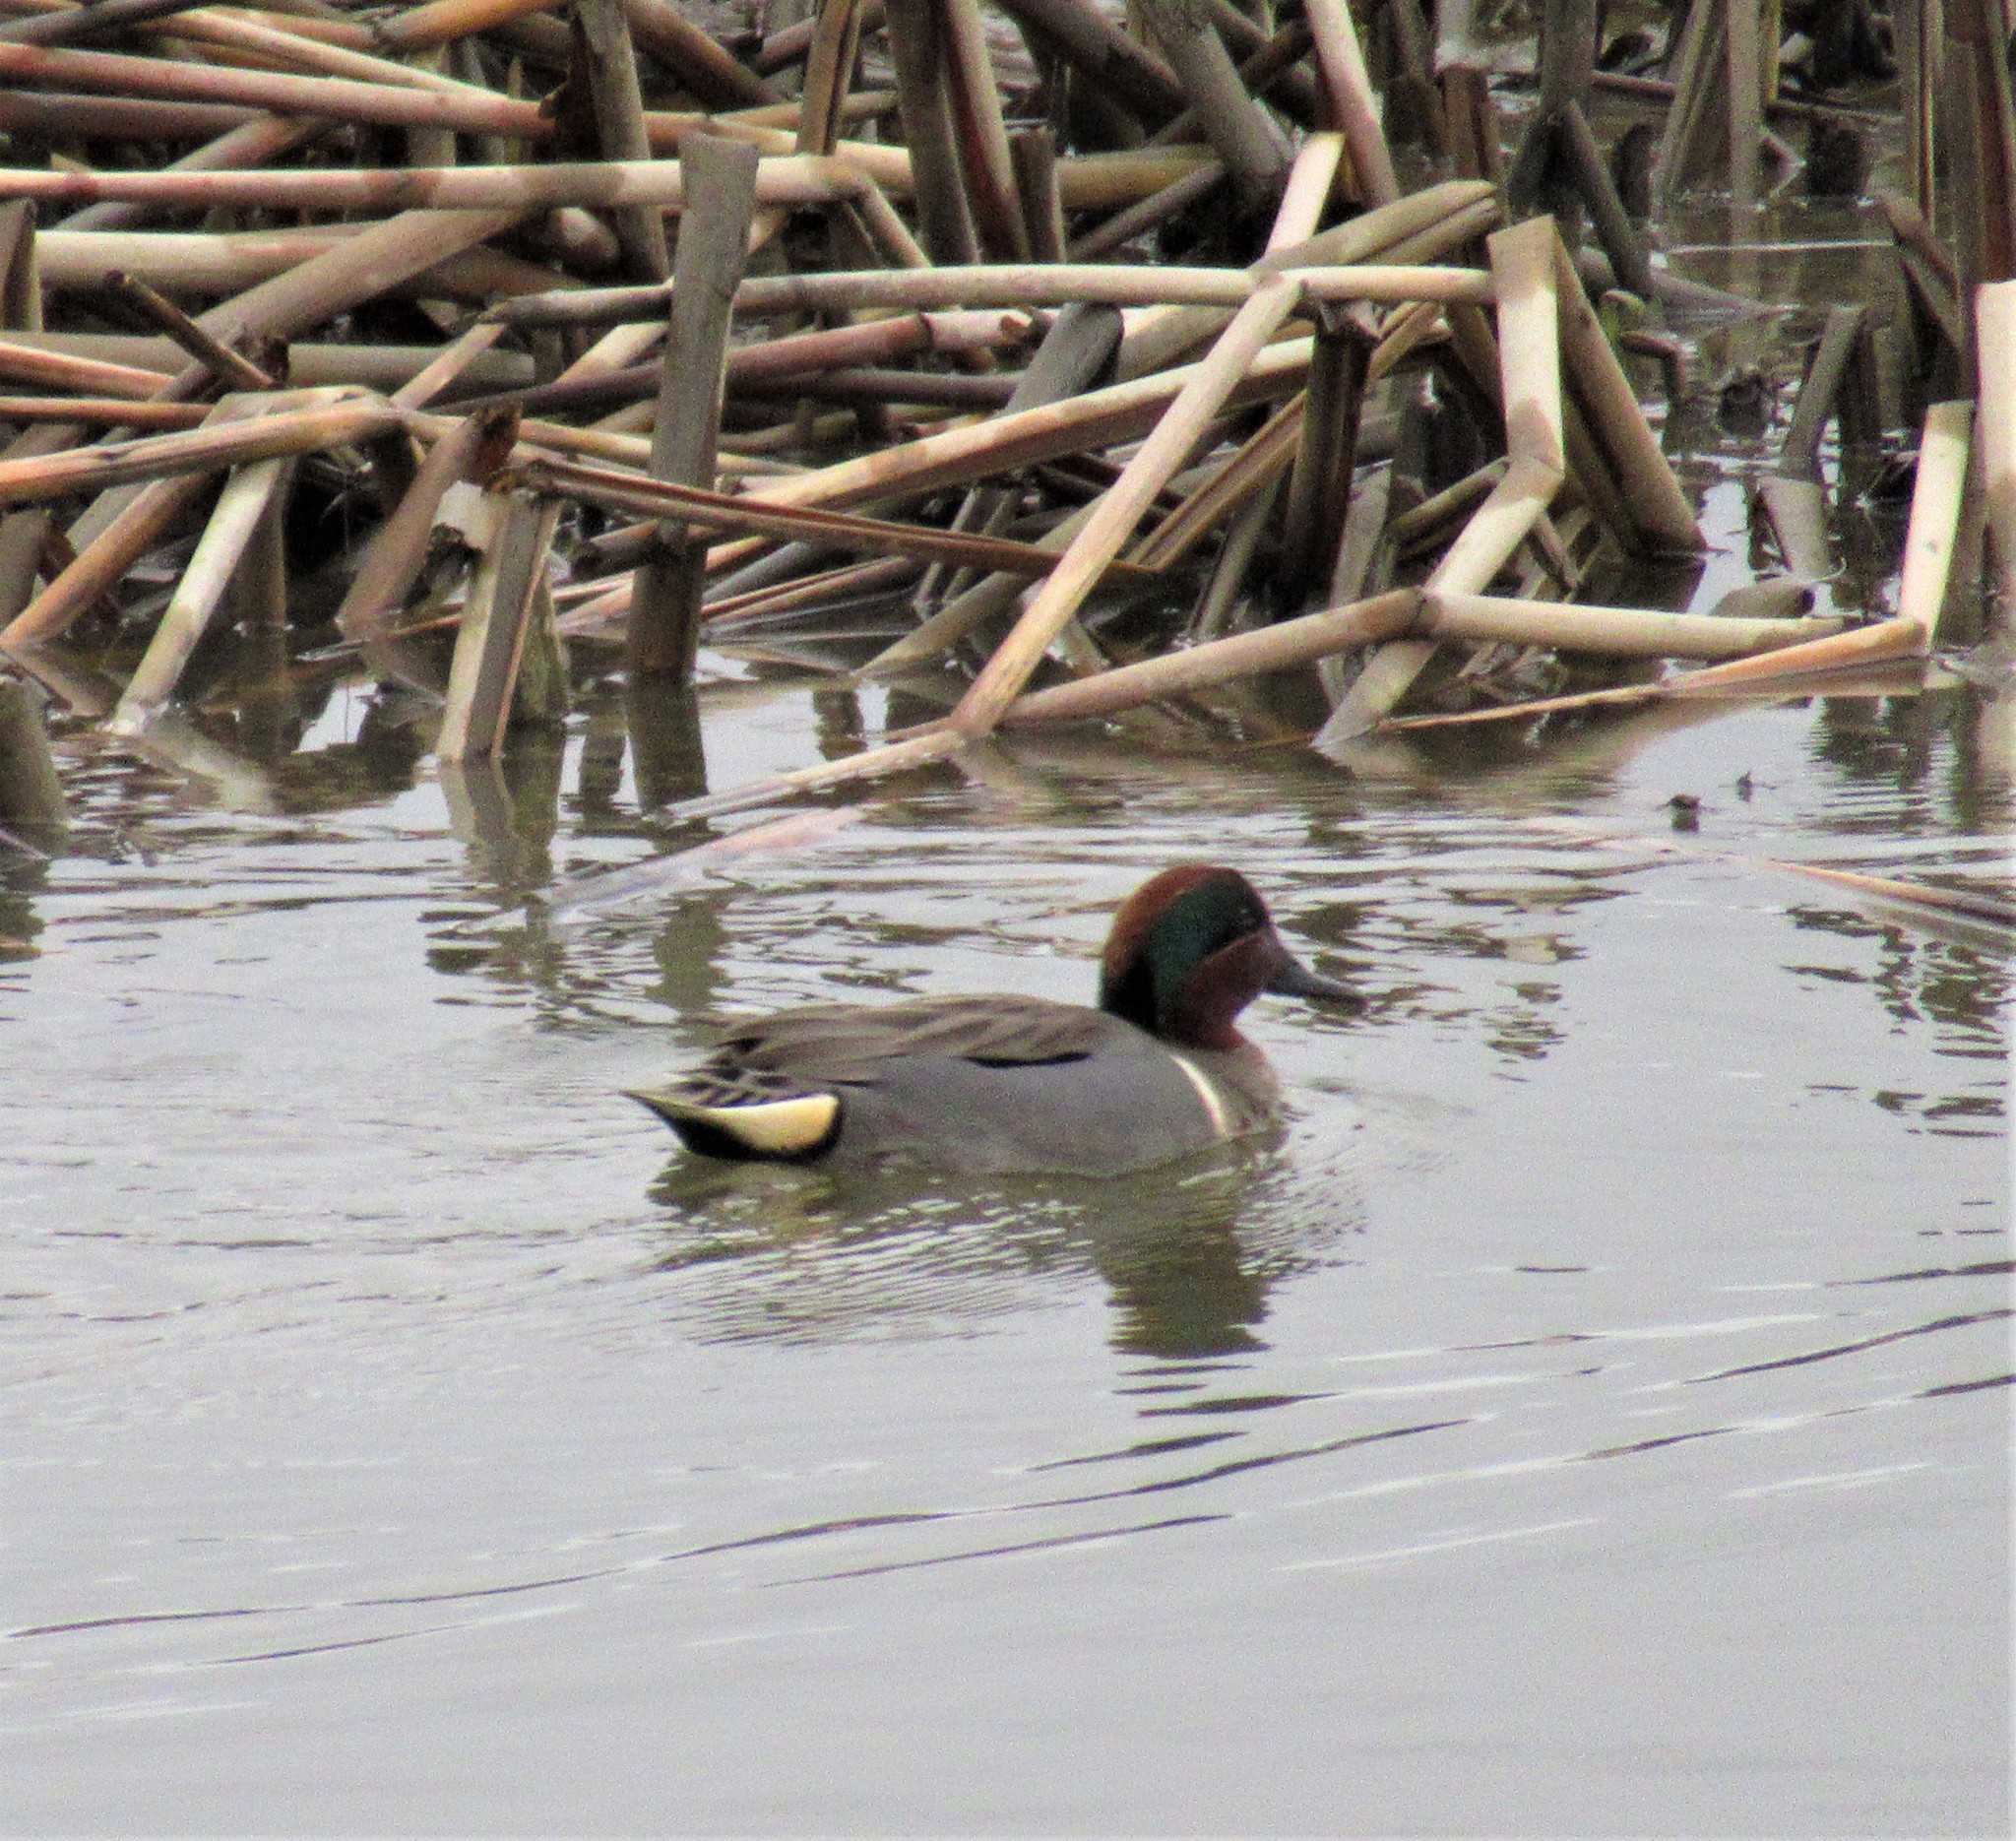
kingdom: Animalia
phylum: Chordata
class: Aves
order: Anseriformes
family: Anatidae
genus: Anas
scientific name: Anas crecca
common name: Eurasian teal
